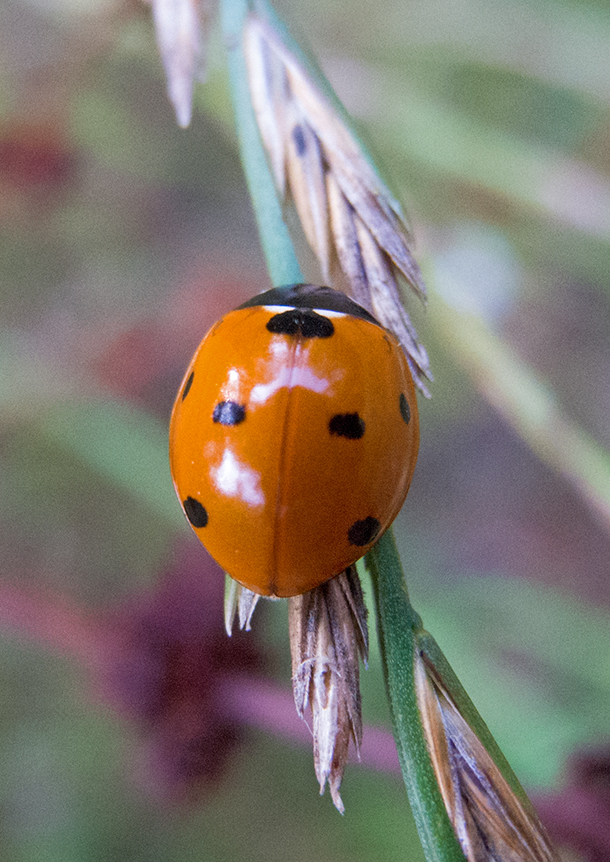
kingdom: Animalia
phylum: Arthropoda
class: Insecta
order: Coleoptera
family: Coccinellidae
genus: Coccinella
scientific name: Coccinella septempunctata
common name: Sevenspotted lady beetle
